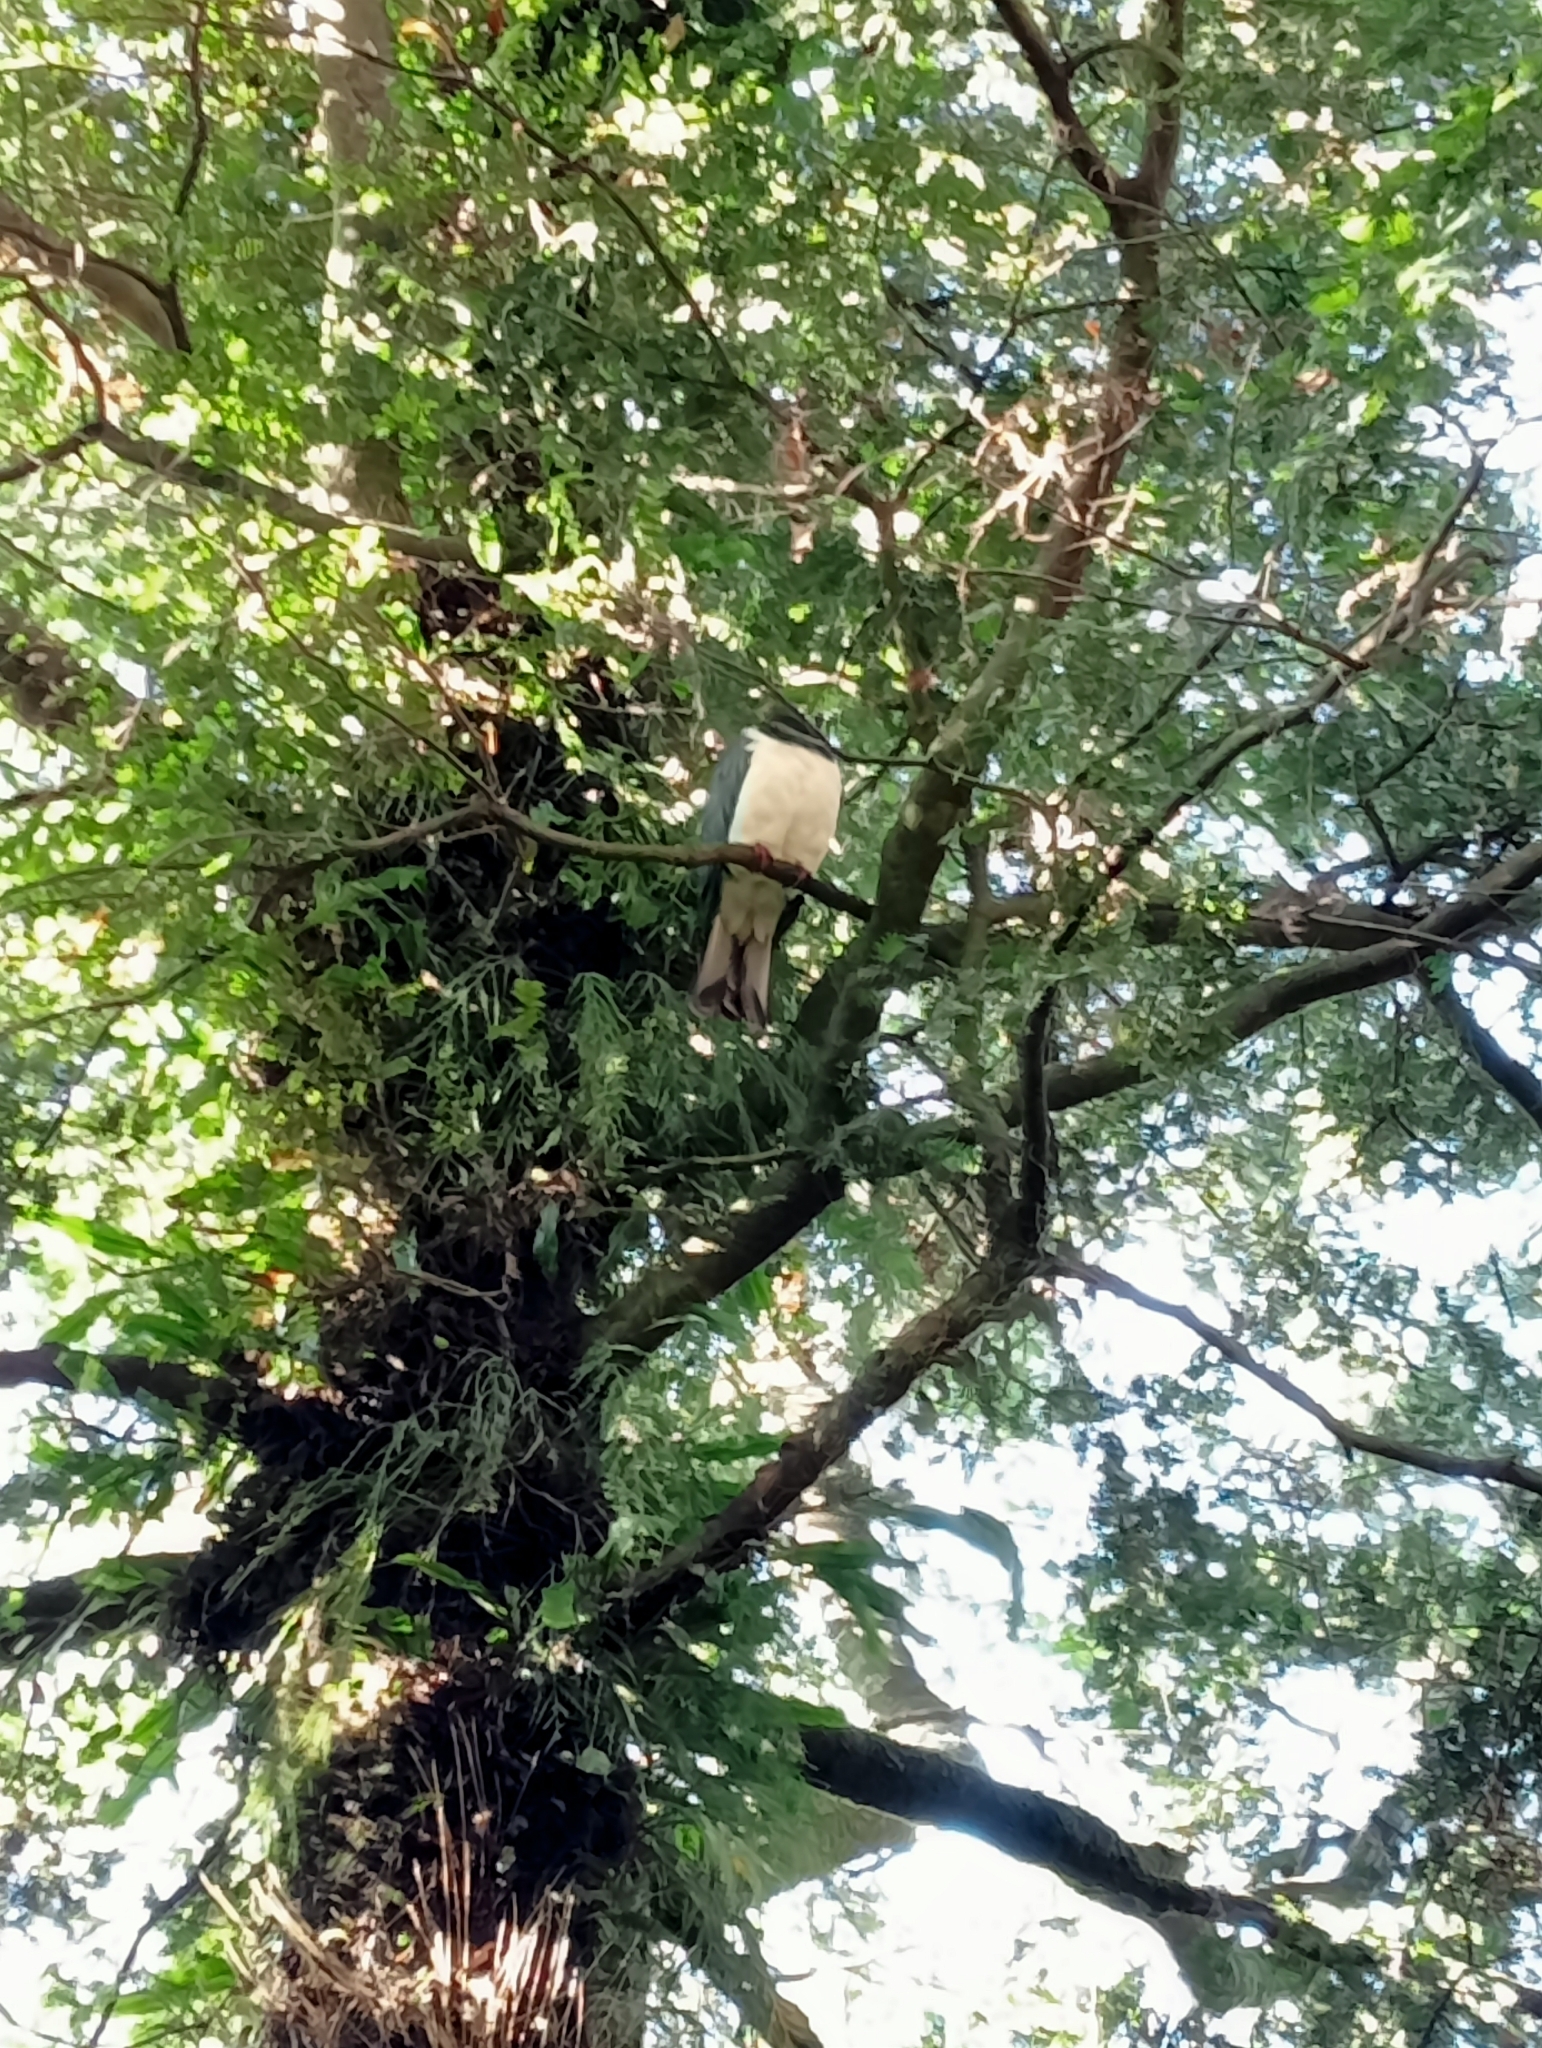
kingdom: Animalia
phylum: Chordata
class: Aves
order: Columbiformes
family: Columbidae
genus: Hemiphaga
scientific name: Hemiphaga novaeseelandiae
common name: New zealand pigeon
